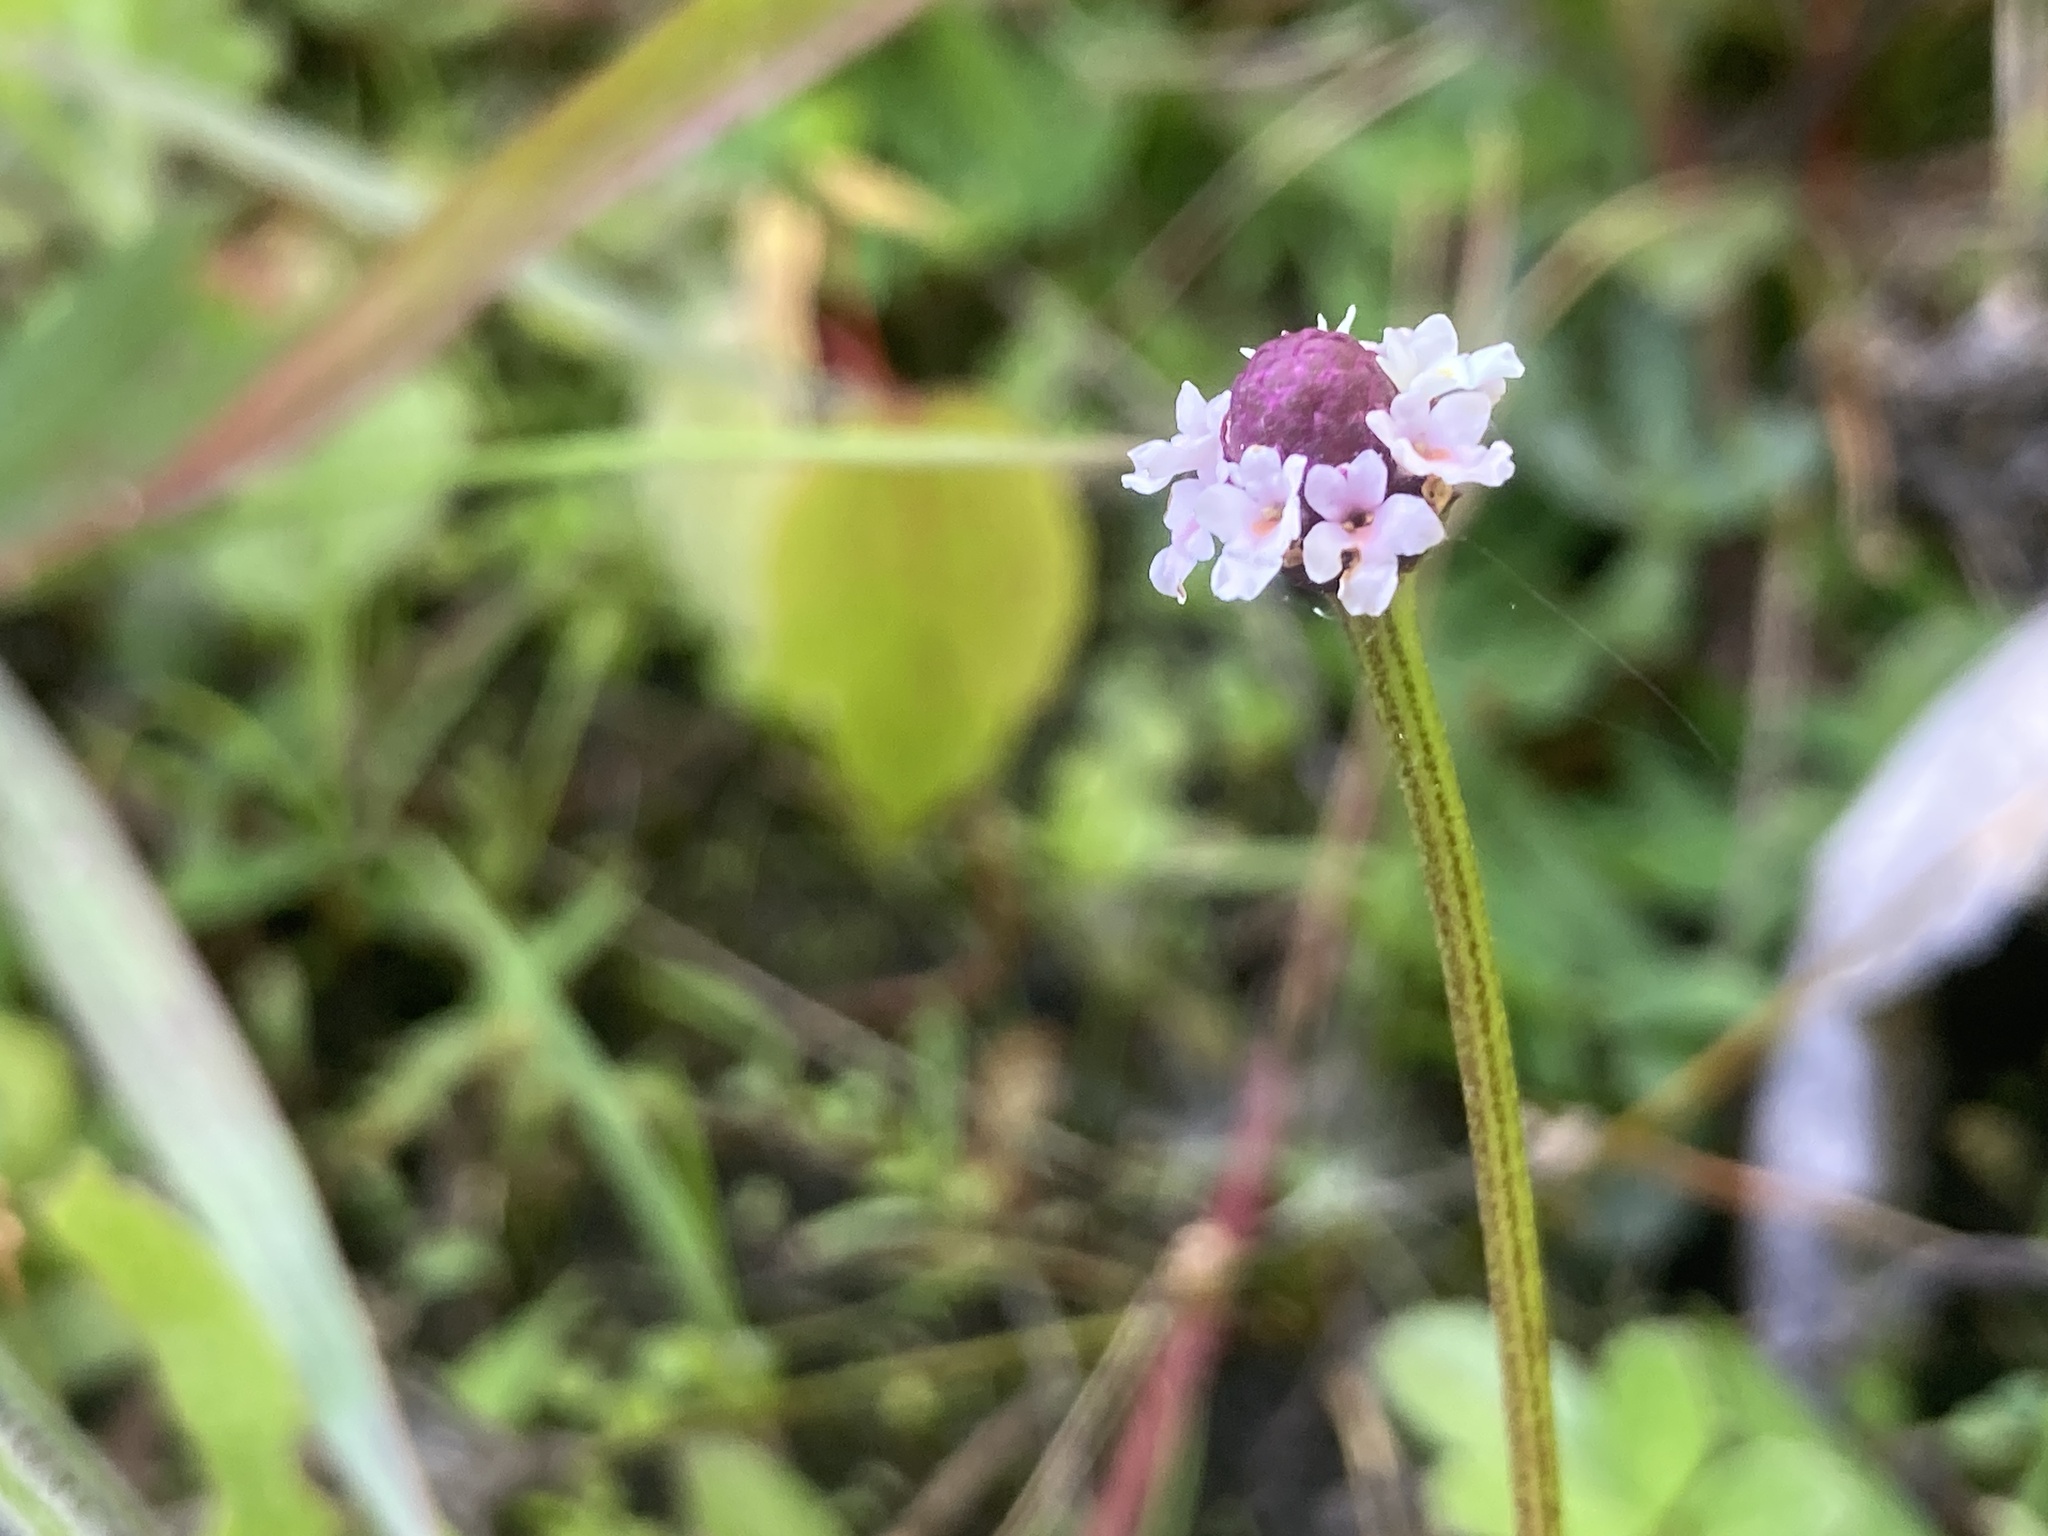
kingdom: Plantae
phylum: Tracheophyta
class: Magnoliopsida
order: Lamiales
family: Verbenaceae
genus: Phyla
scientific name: Phyla nodiflora
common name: Frogfruit
